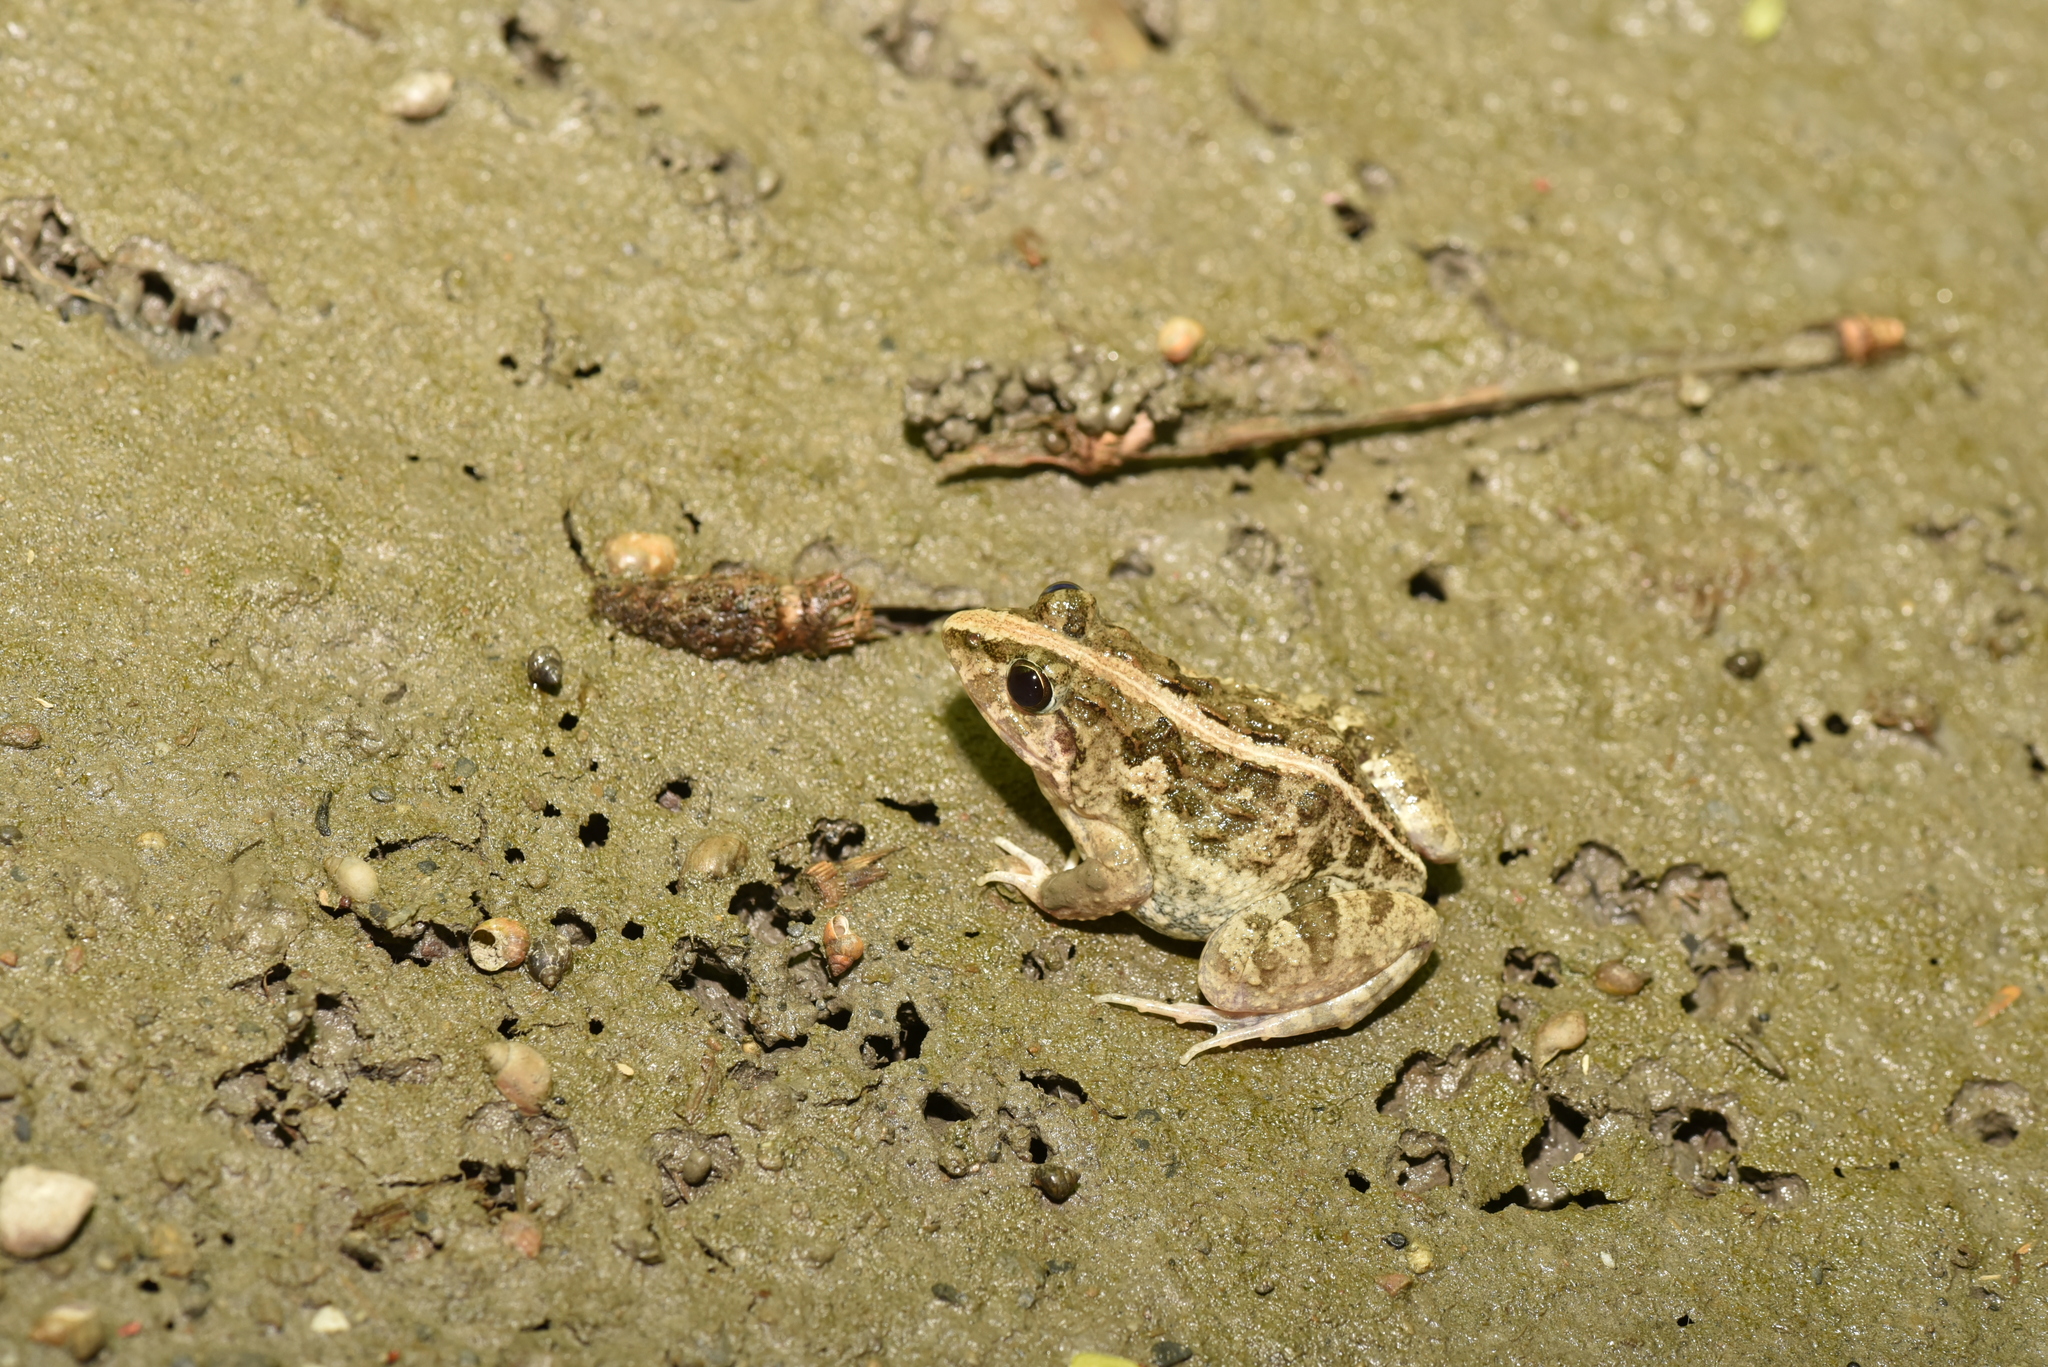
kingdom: Animalia
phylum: Chordata
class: Amphibia
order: Anura
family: Dicroglossidae
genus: Fejervarya
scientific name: Fejervarya limnocharis
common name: Asian grass frog/common pond frog/field frog/grass frog/indian rice frog
